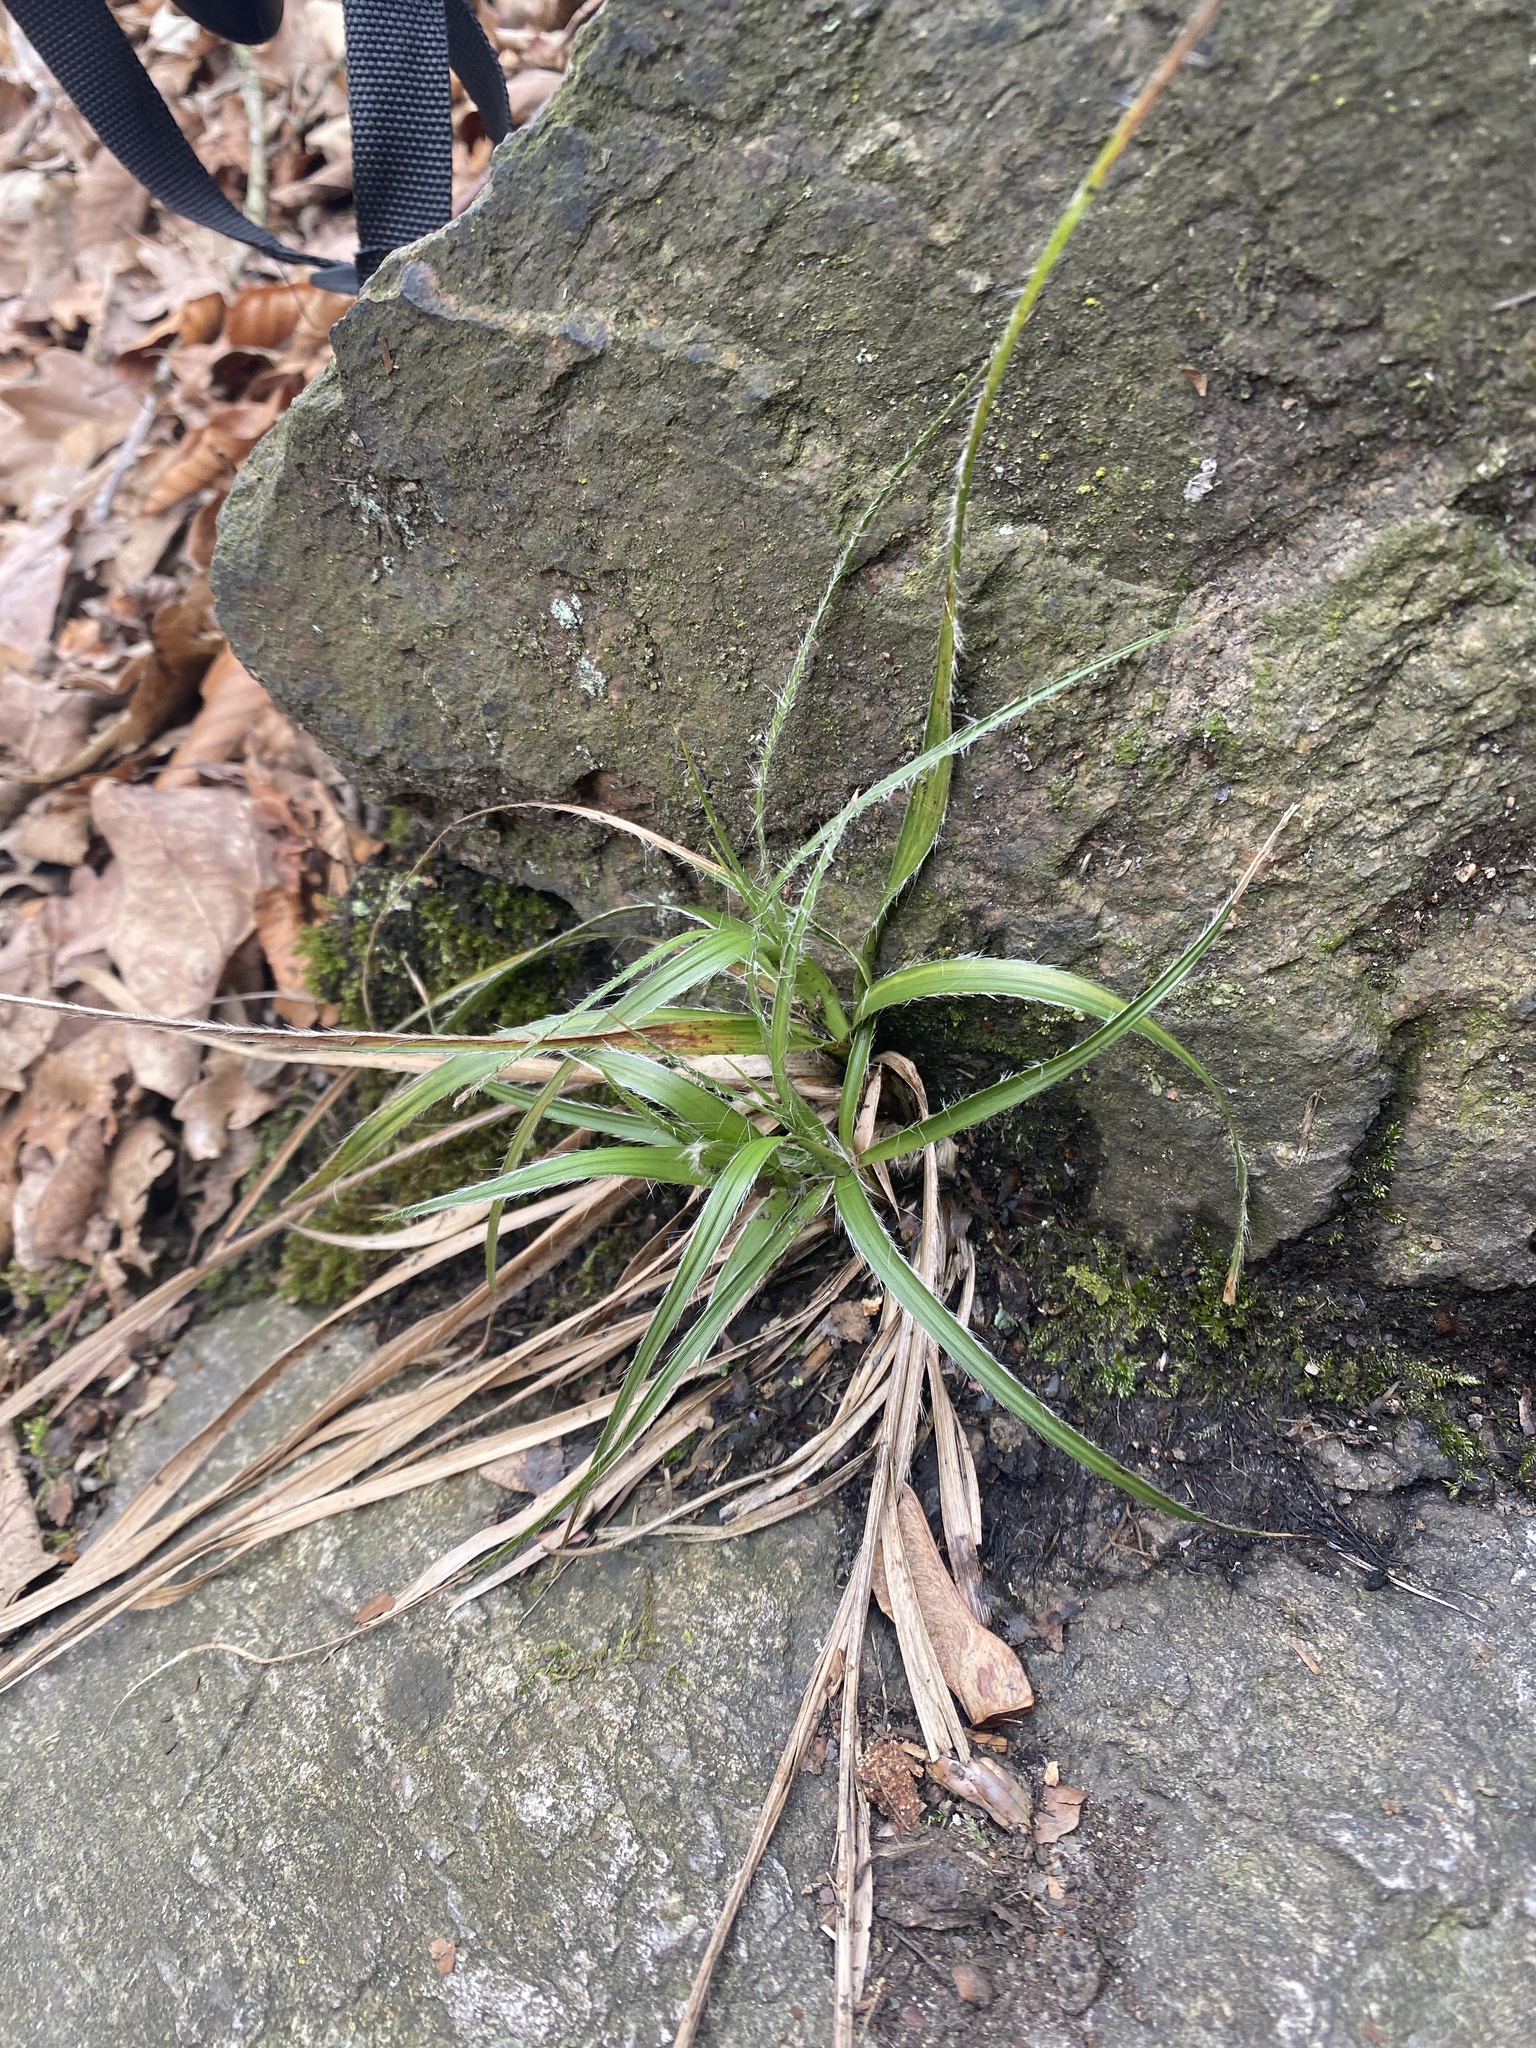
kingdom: Plantae
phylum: Tracheophyta
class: Liliopsida
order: Poales
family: Juncaceae
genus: Luzula
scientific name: Luzula luzuloides
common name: White wood-rush
